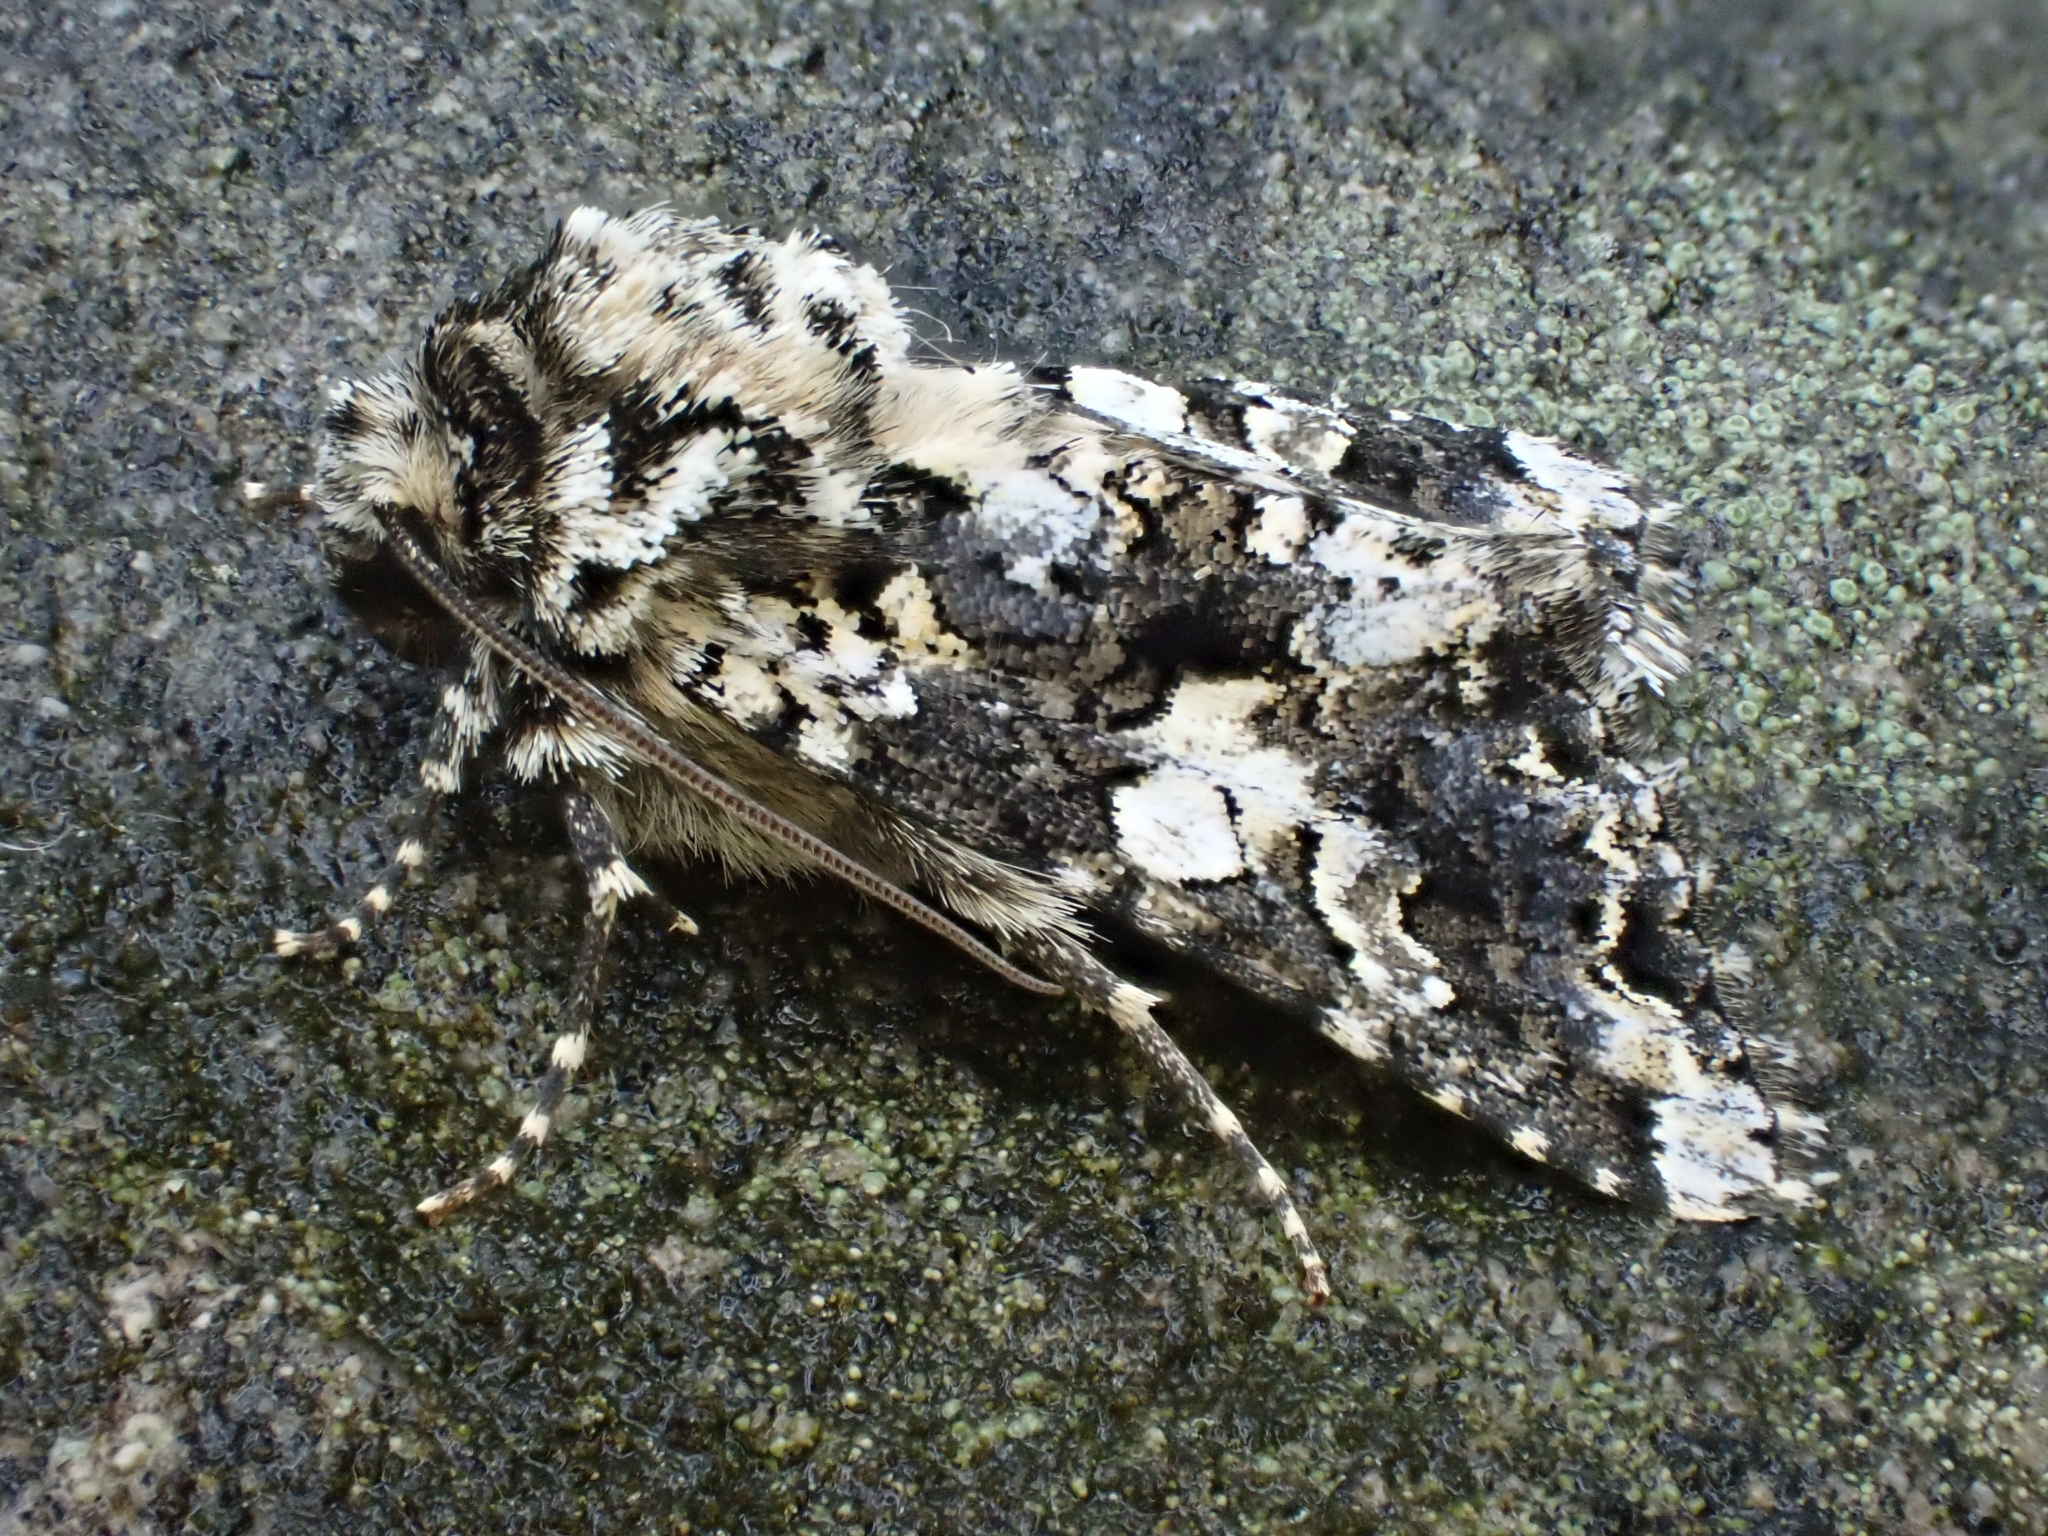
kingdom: Animalia
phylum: Arthropoda
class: Insecta
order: Lepidoptera
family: Noctuidae
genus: Hadena
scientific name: Hadena confusa
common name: Marbled coronet
